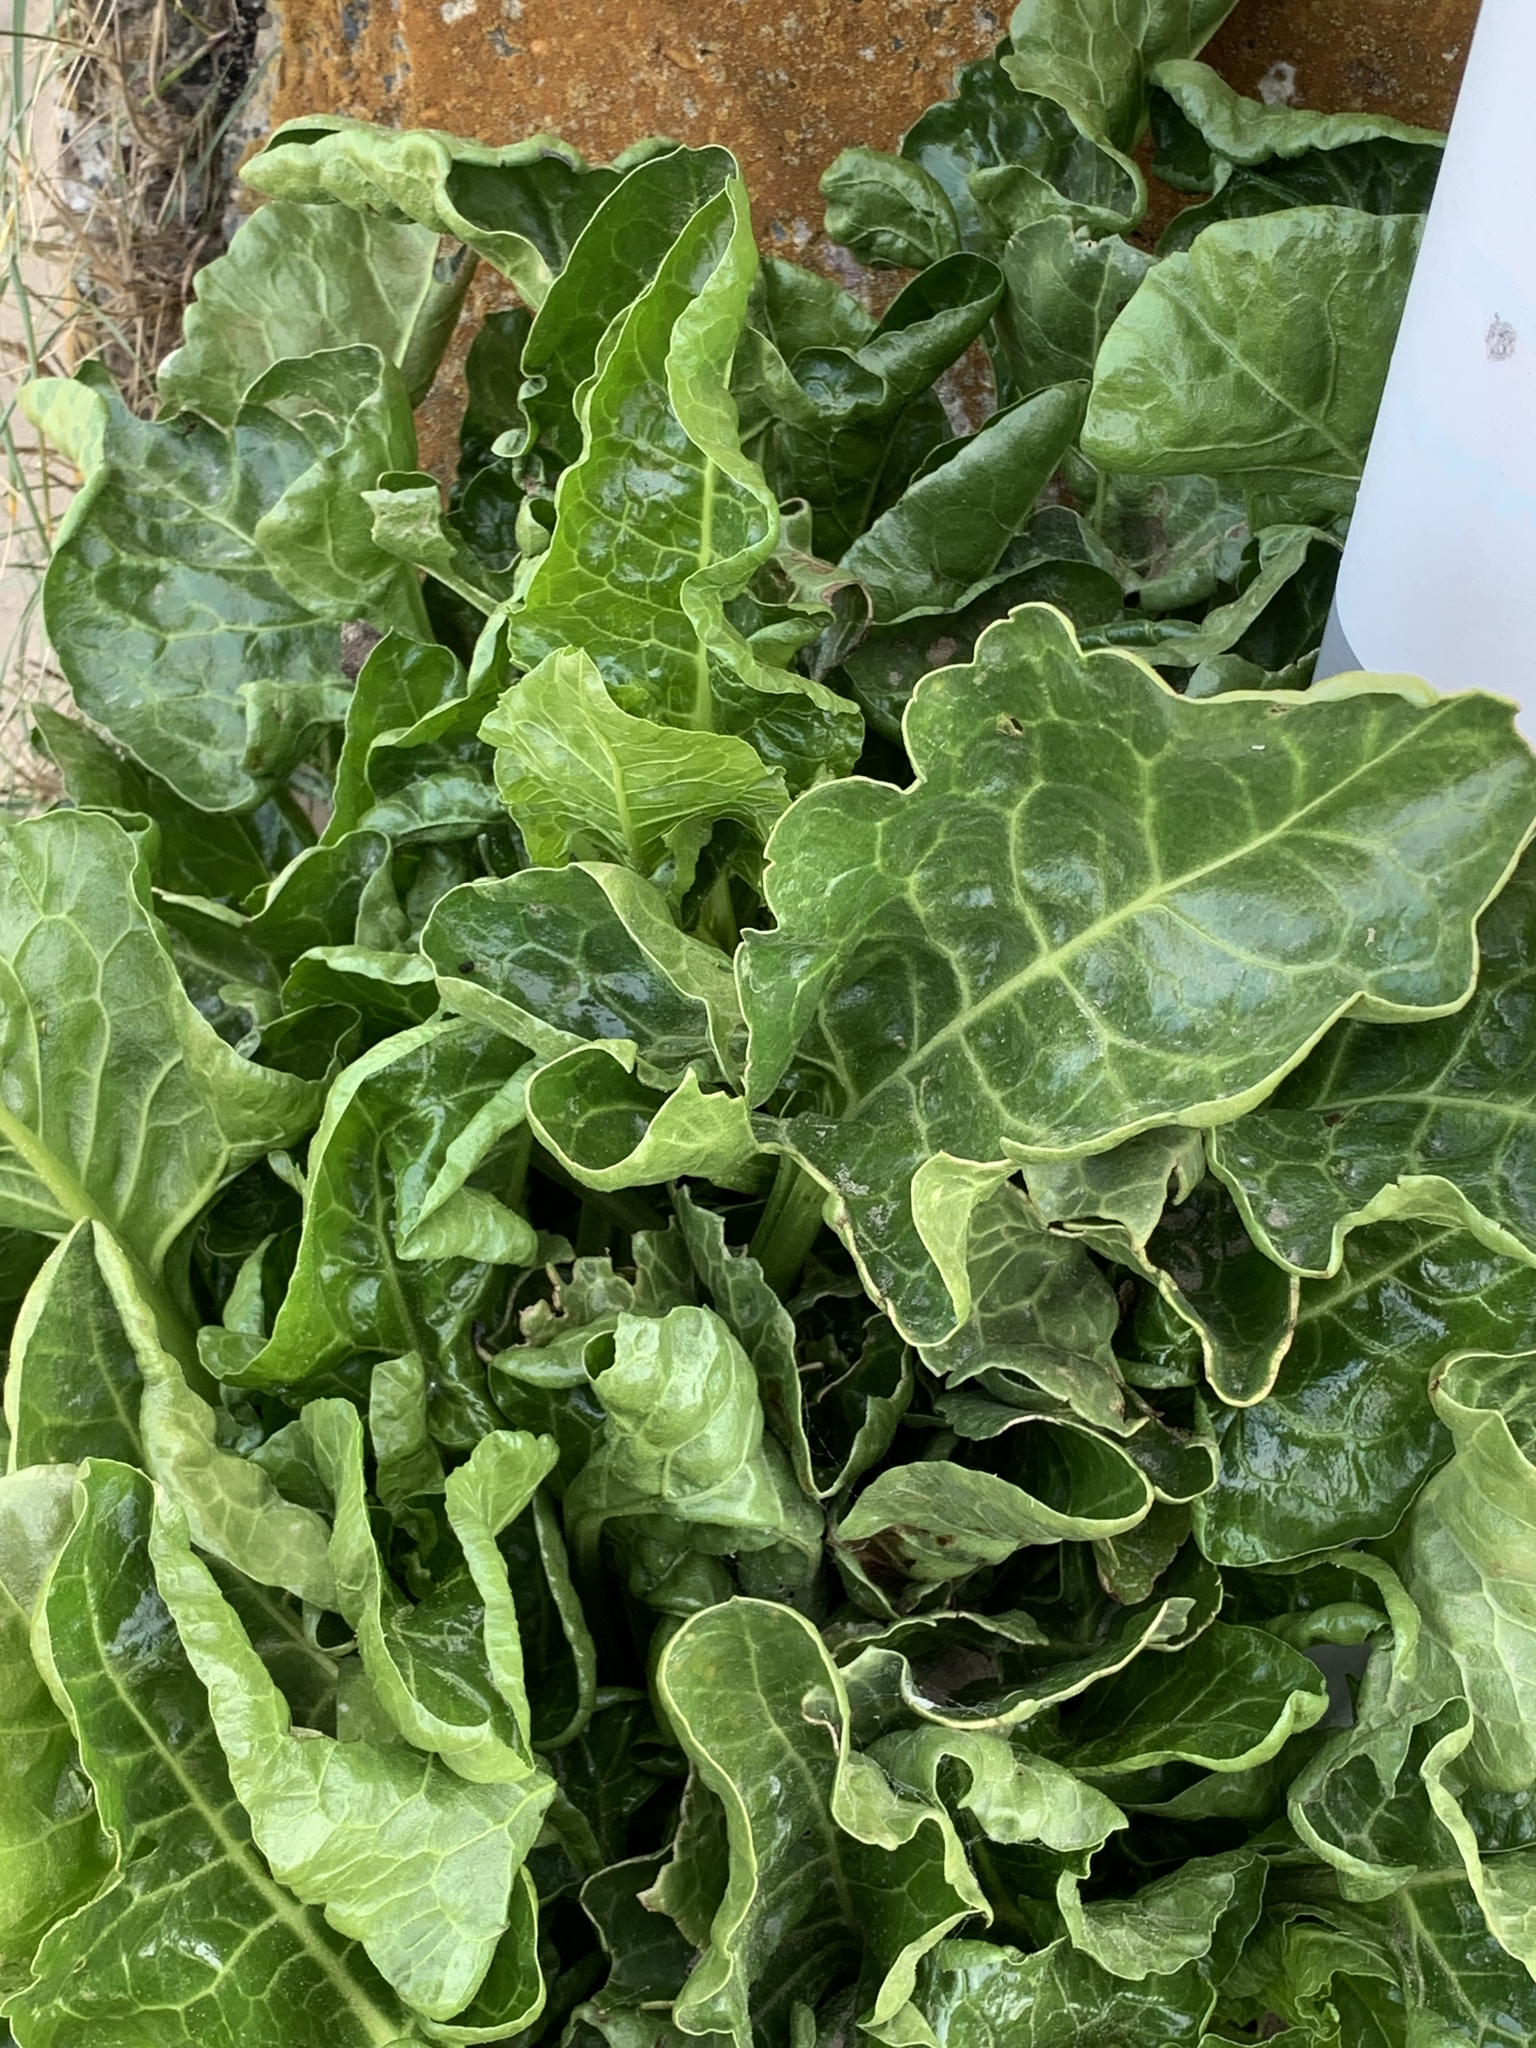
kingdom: Plantae
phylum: Tracheophyta
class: Magnoliopsida
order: Caryophyllales
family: Amaranthaceae
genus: Beta
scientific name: Beta vulgaris
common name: Beet
